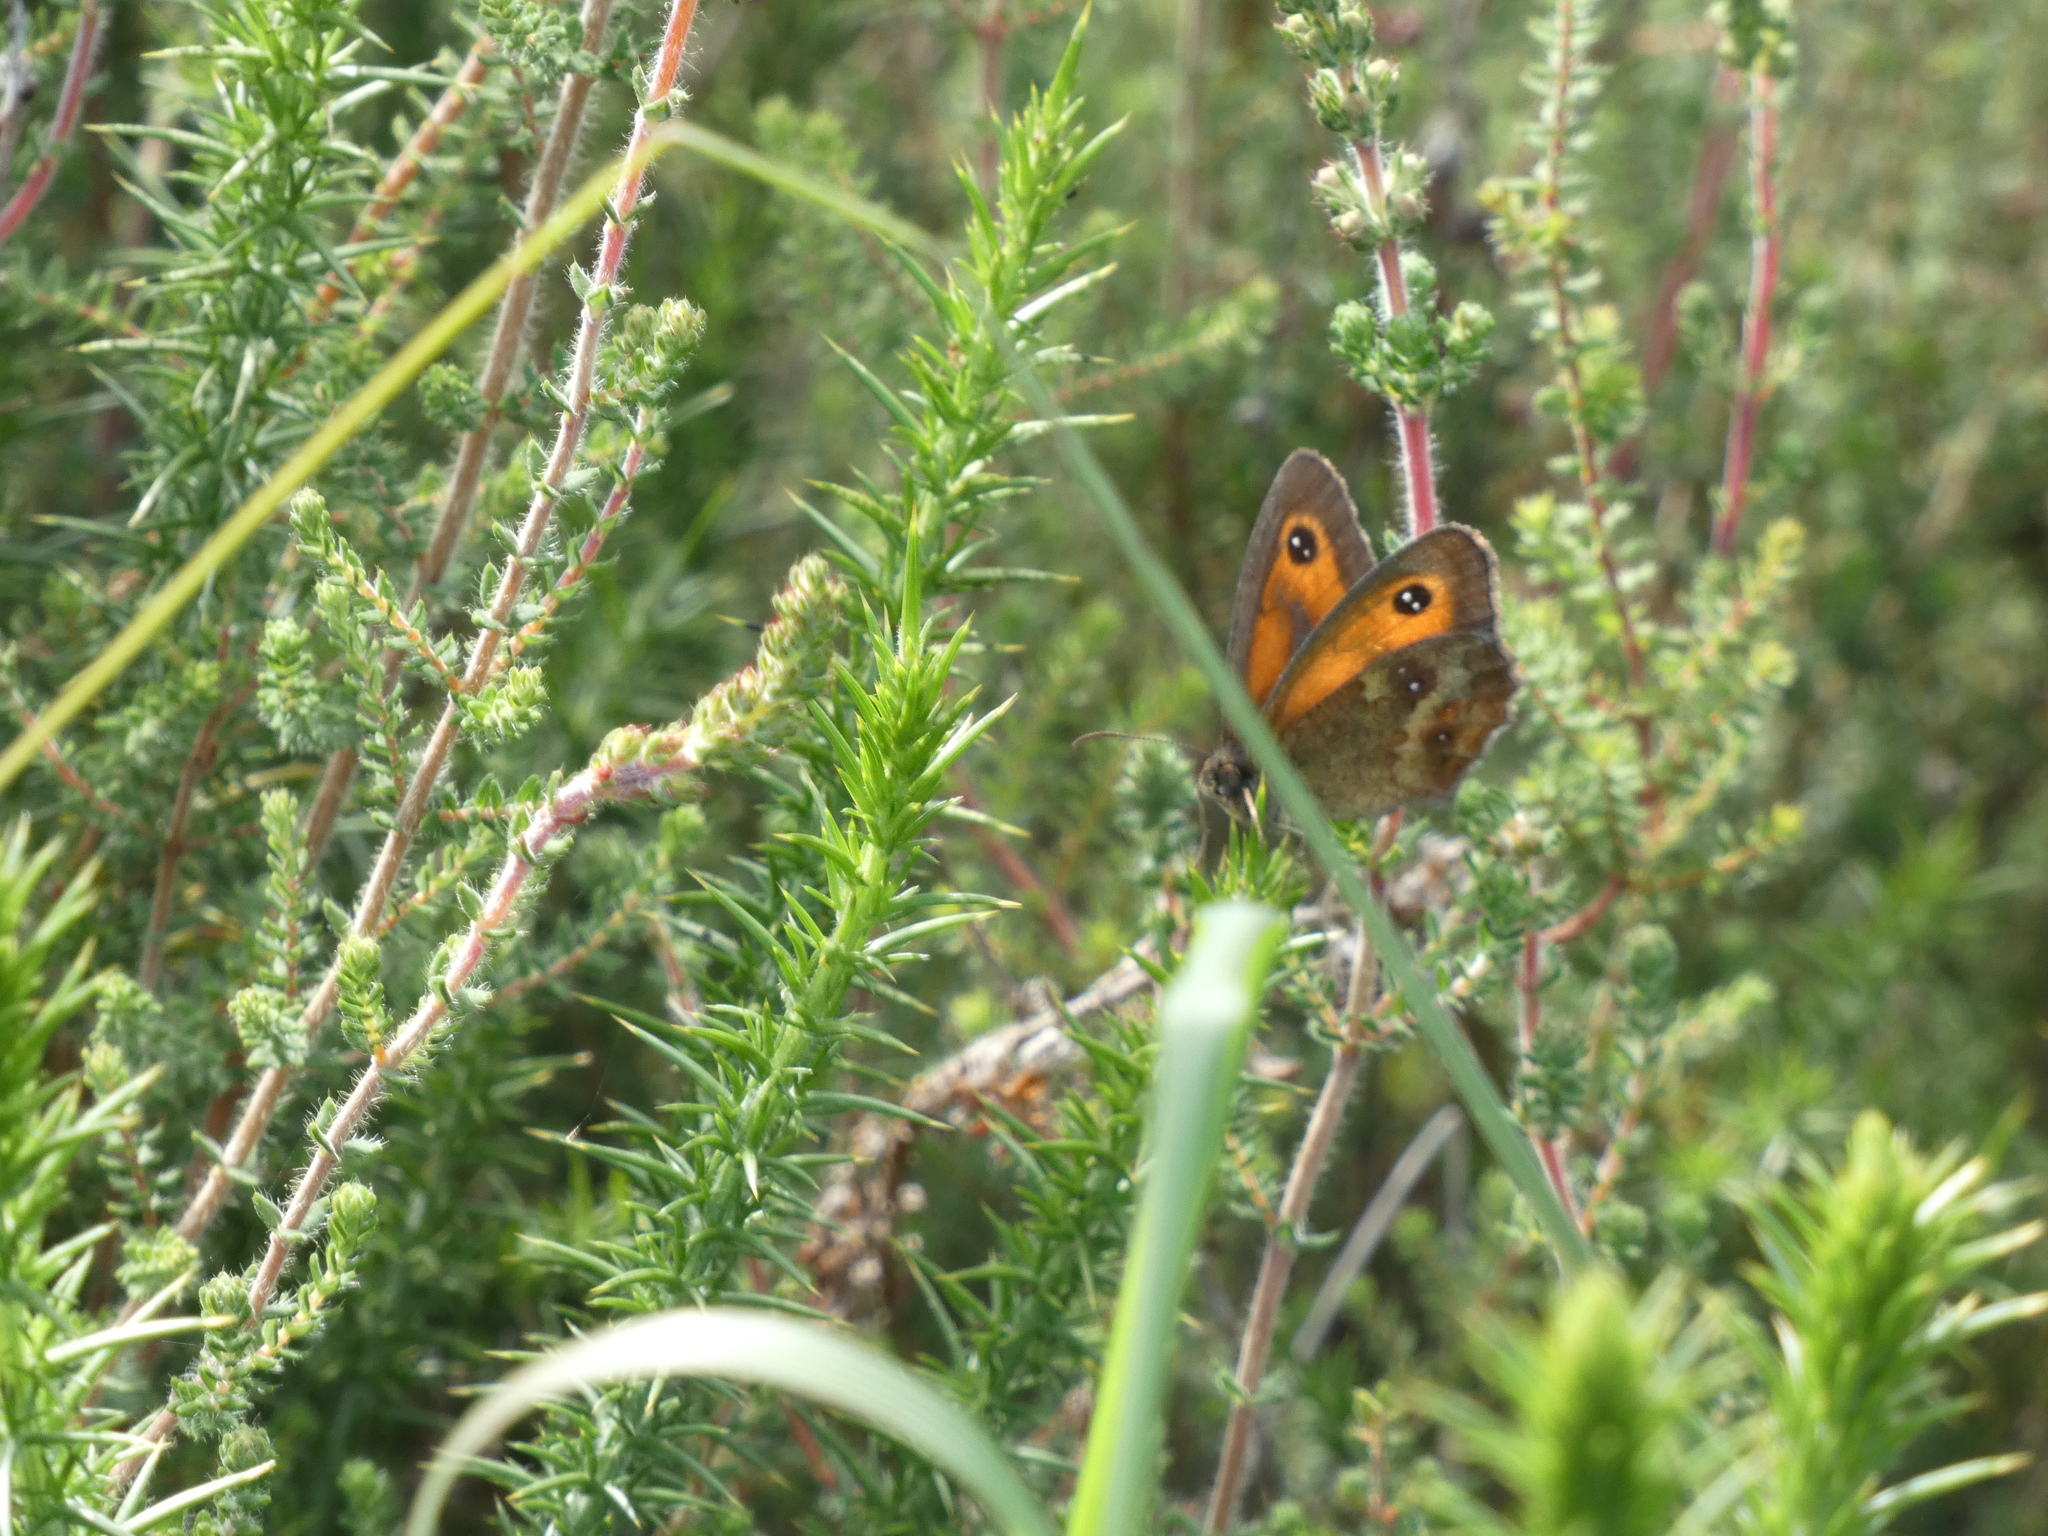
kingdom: Animalia
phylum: Arthropoda
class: Insecta
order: Lepidoptera
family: Nymphalidae
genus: Pyronia
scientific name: Pyronia tithonus
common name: Gatekeeper
